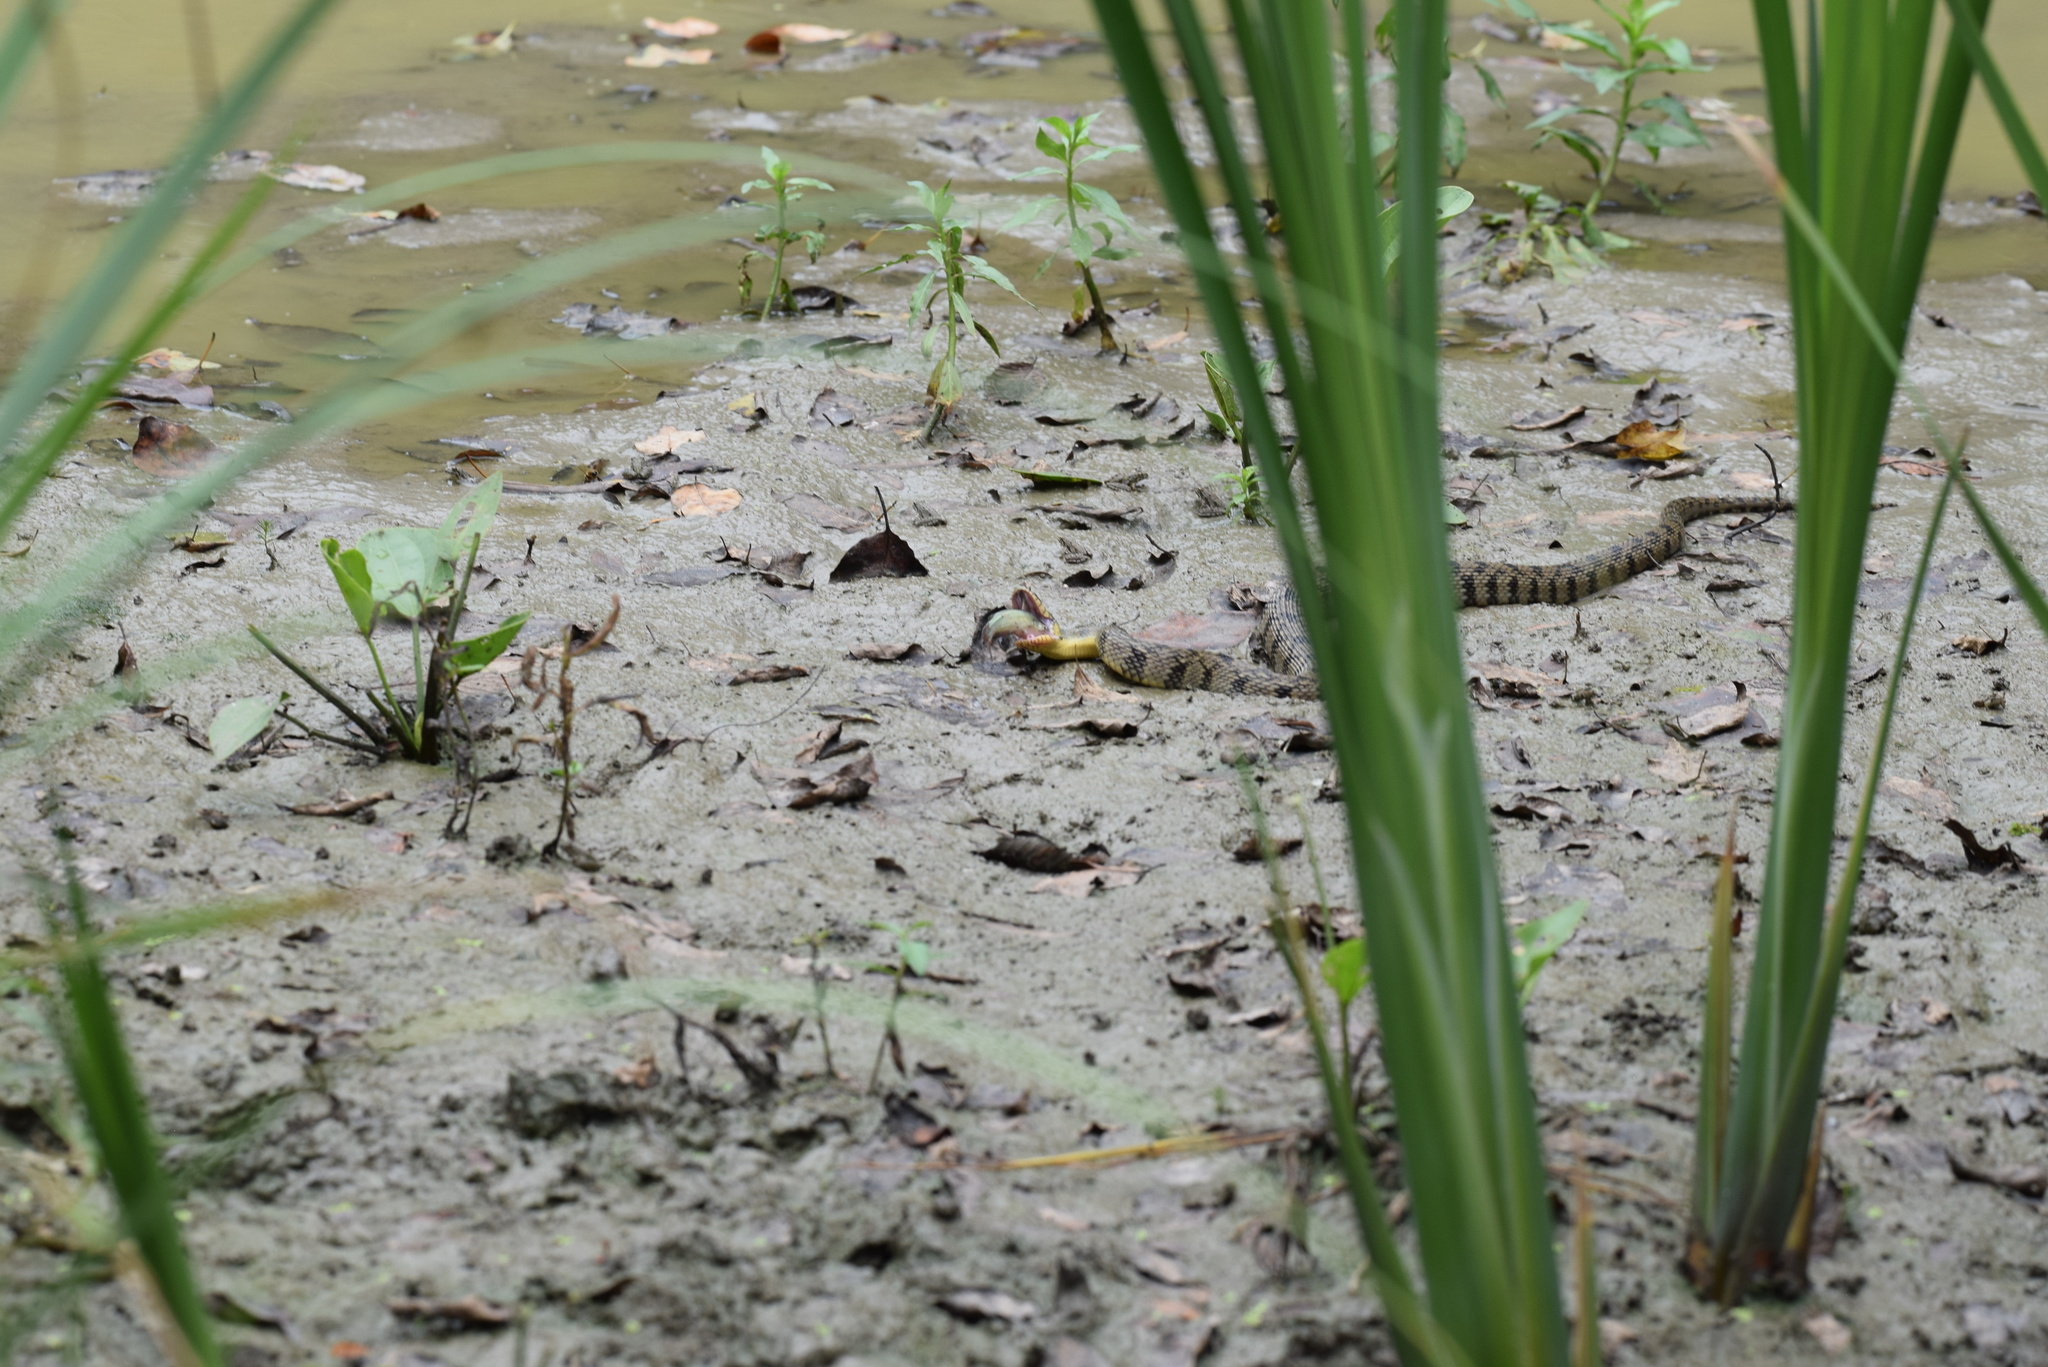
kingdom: Animalia
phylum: Chordata
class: Squamata
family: Colubridae
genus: Nerodia
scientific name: Nerodia rhombifer
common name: Diamondback water snake
